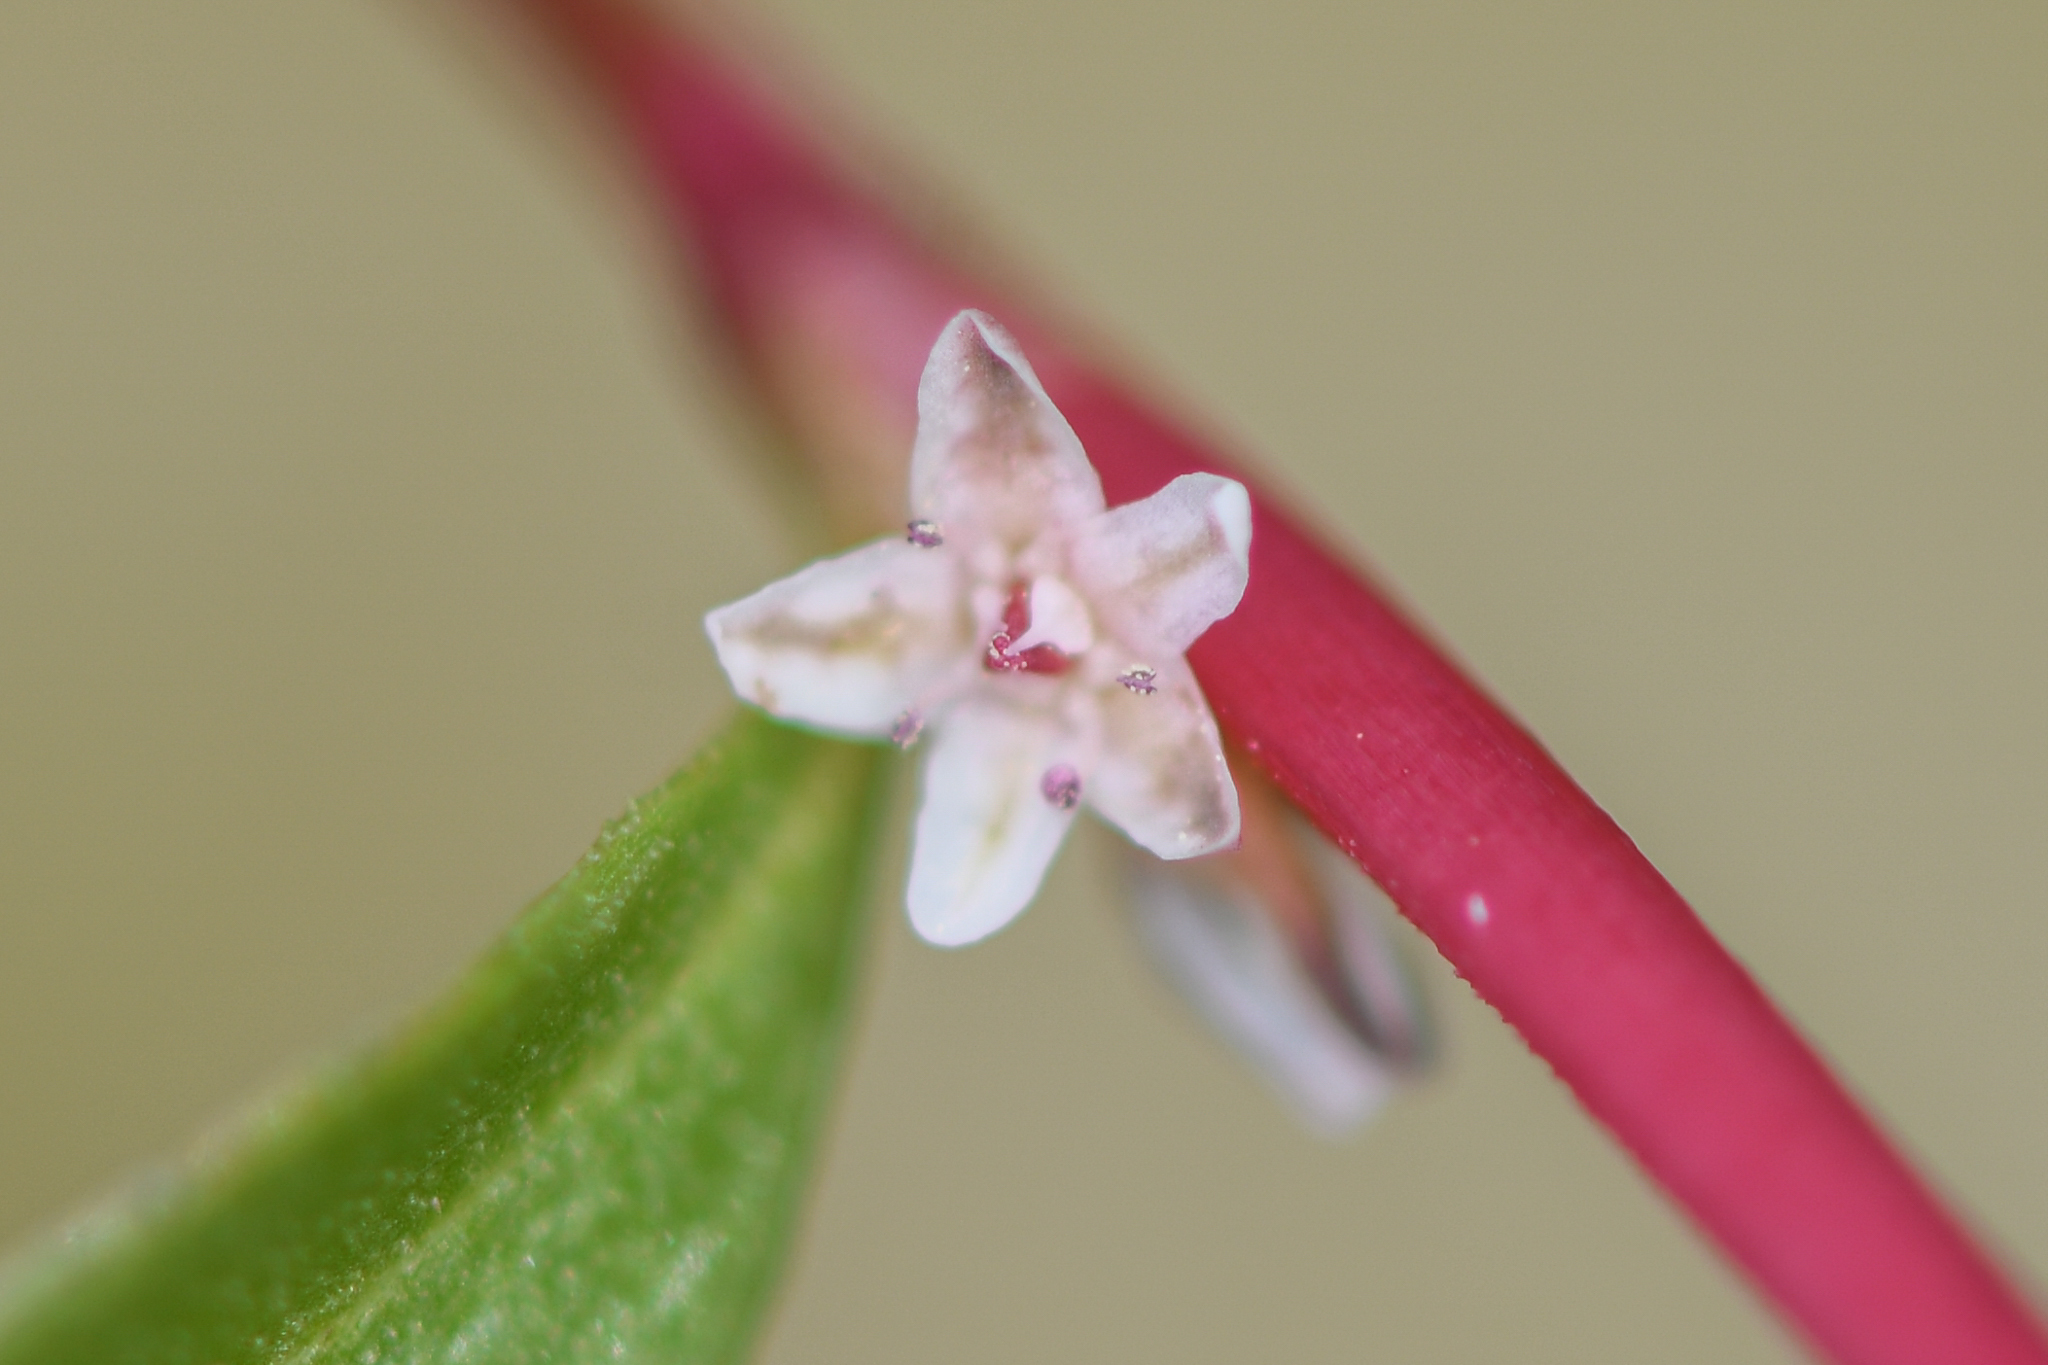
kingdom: Plantae
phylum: Tracheophyta
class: Magnoliopsida
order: Caryophyllales
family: Polygonaceae
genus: Polygonum
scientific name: Polygonum douglasii
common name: Douglas' knotweed
